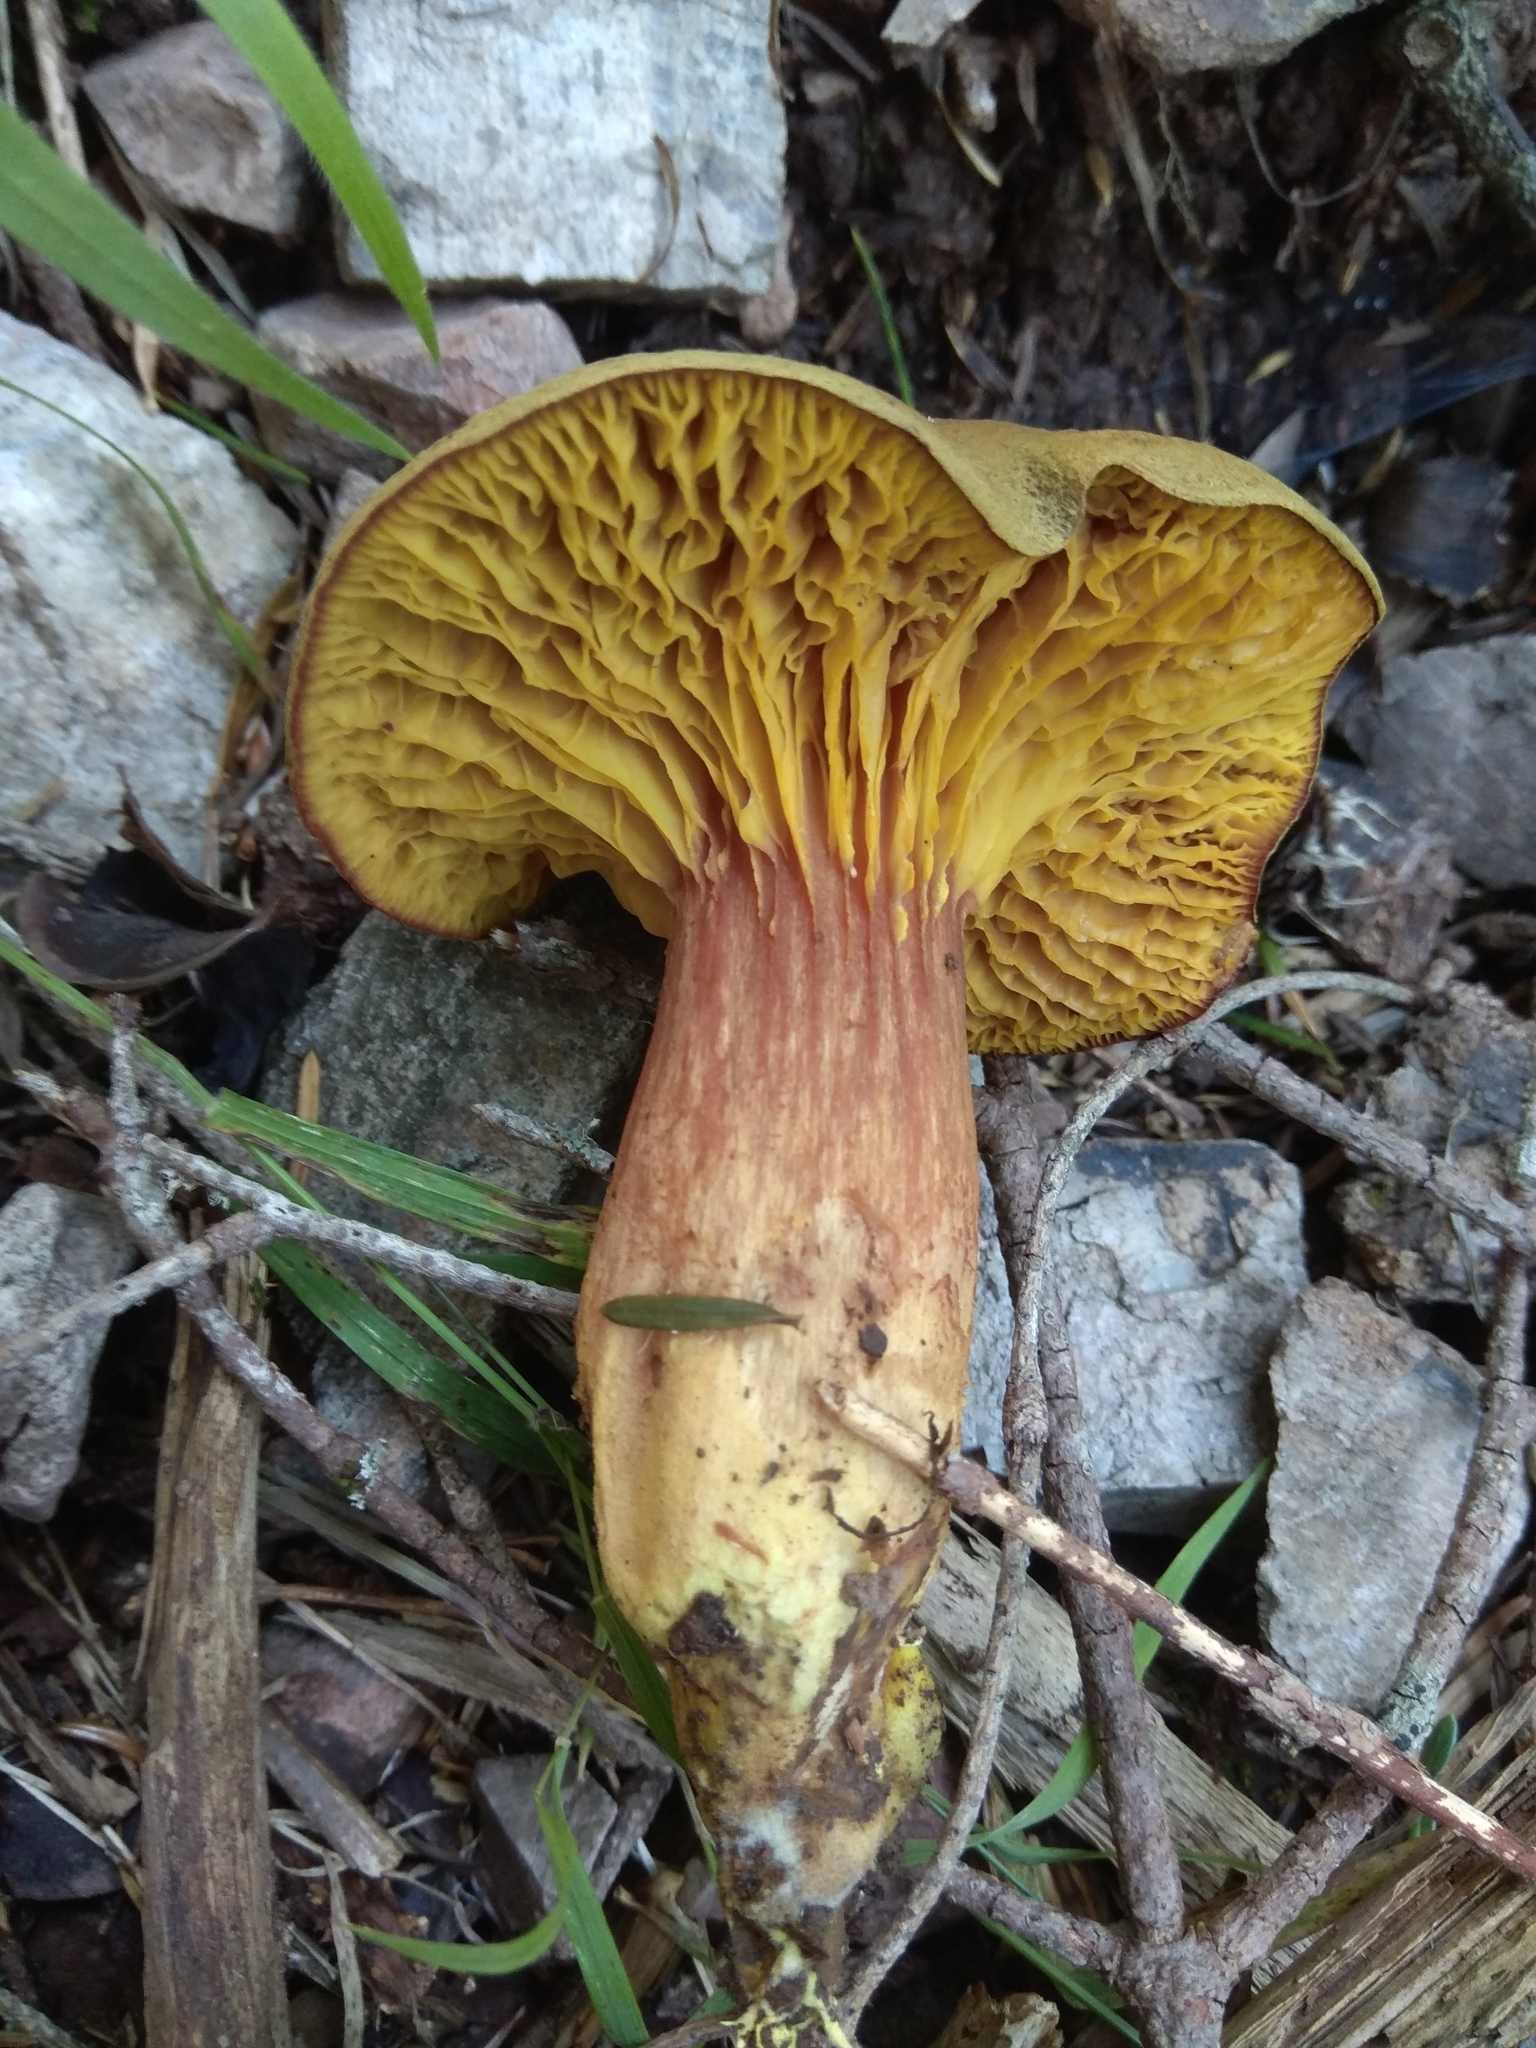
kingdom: Fungi
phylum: Basidiomycota
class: Agaricomycetes
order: Boletales
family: Boletaceae
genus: Phylloporus
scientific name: Phylloporus pelletieri
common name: Golden gilled bolete
